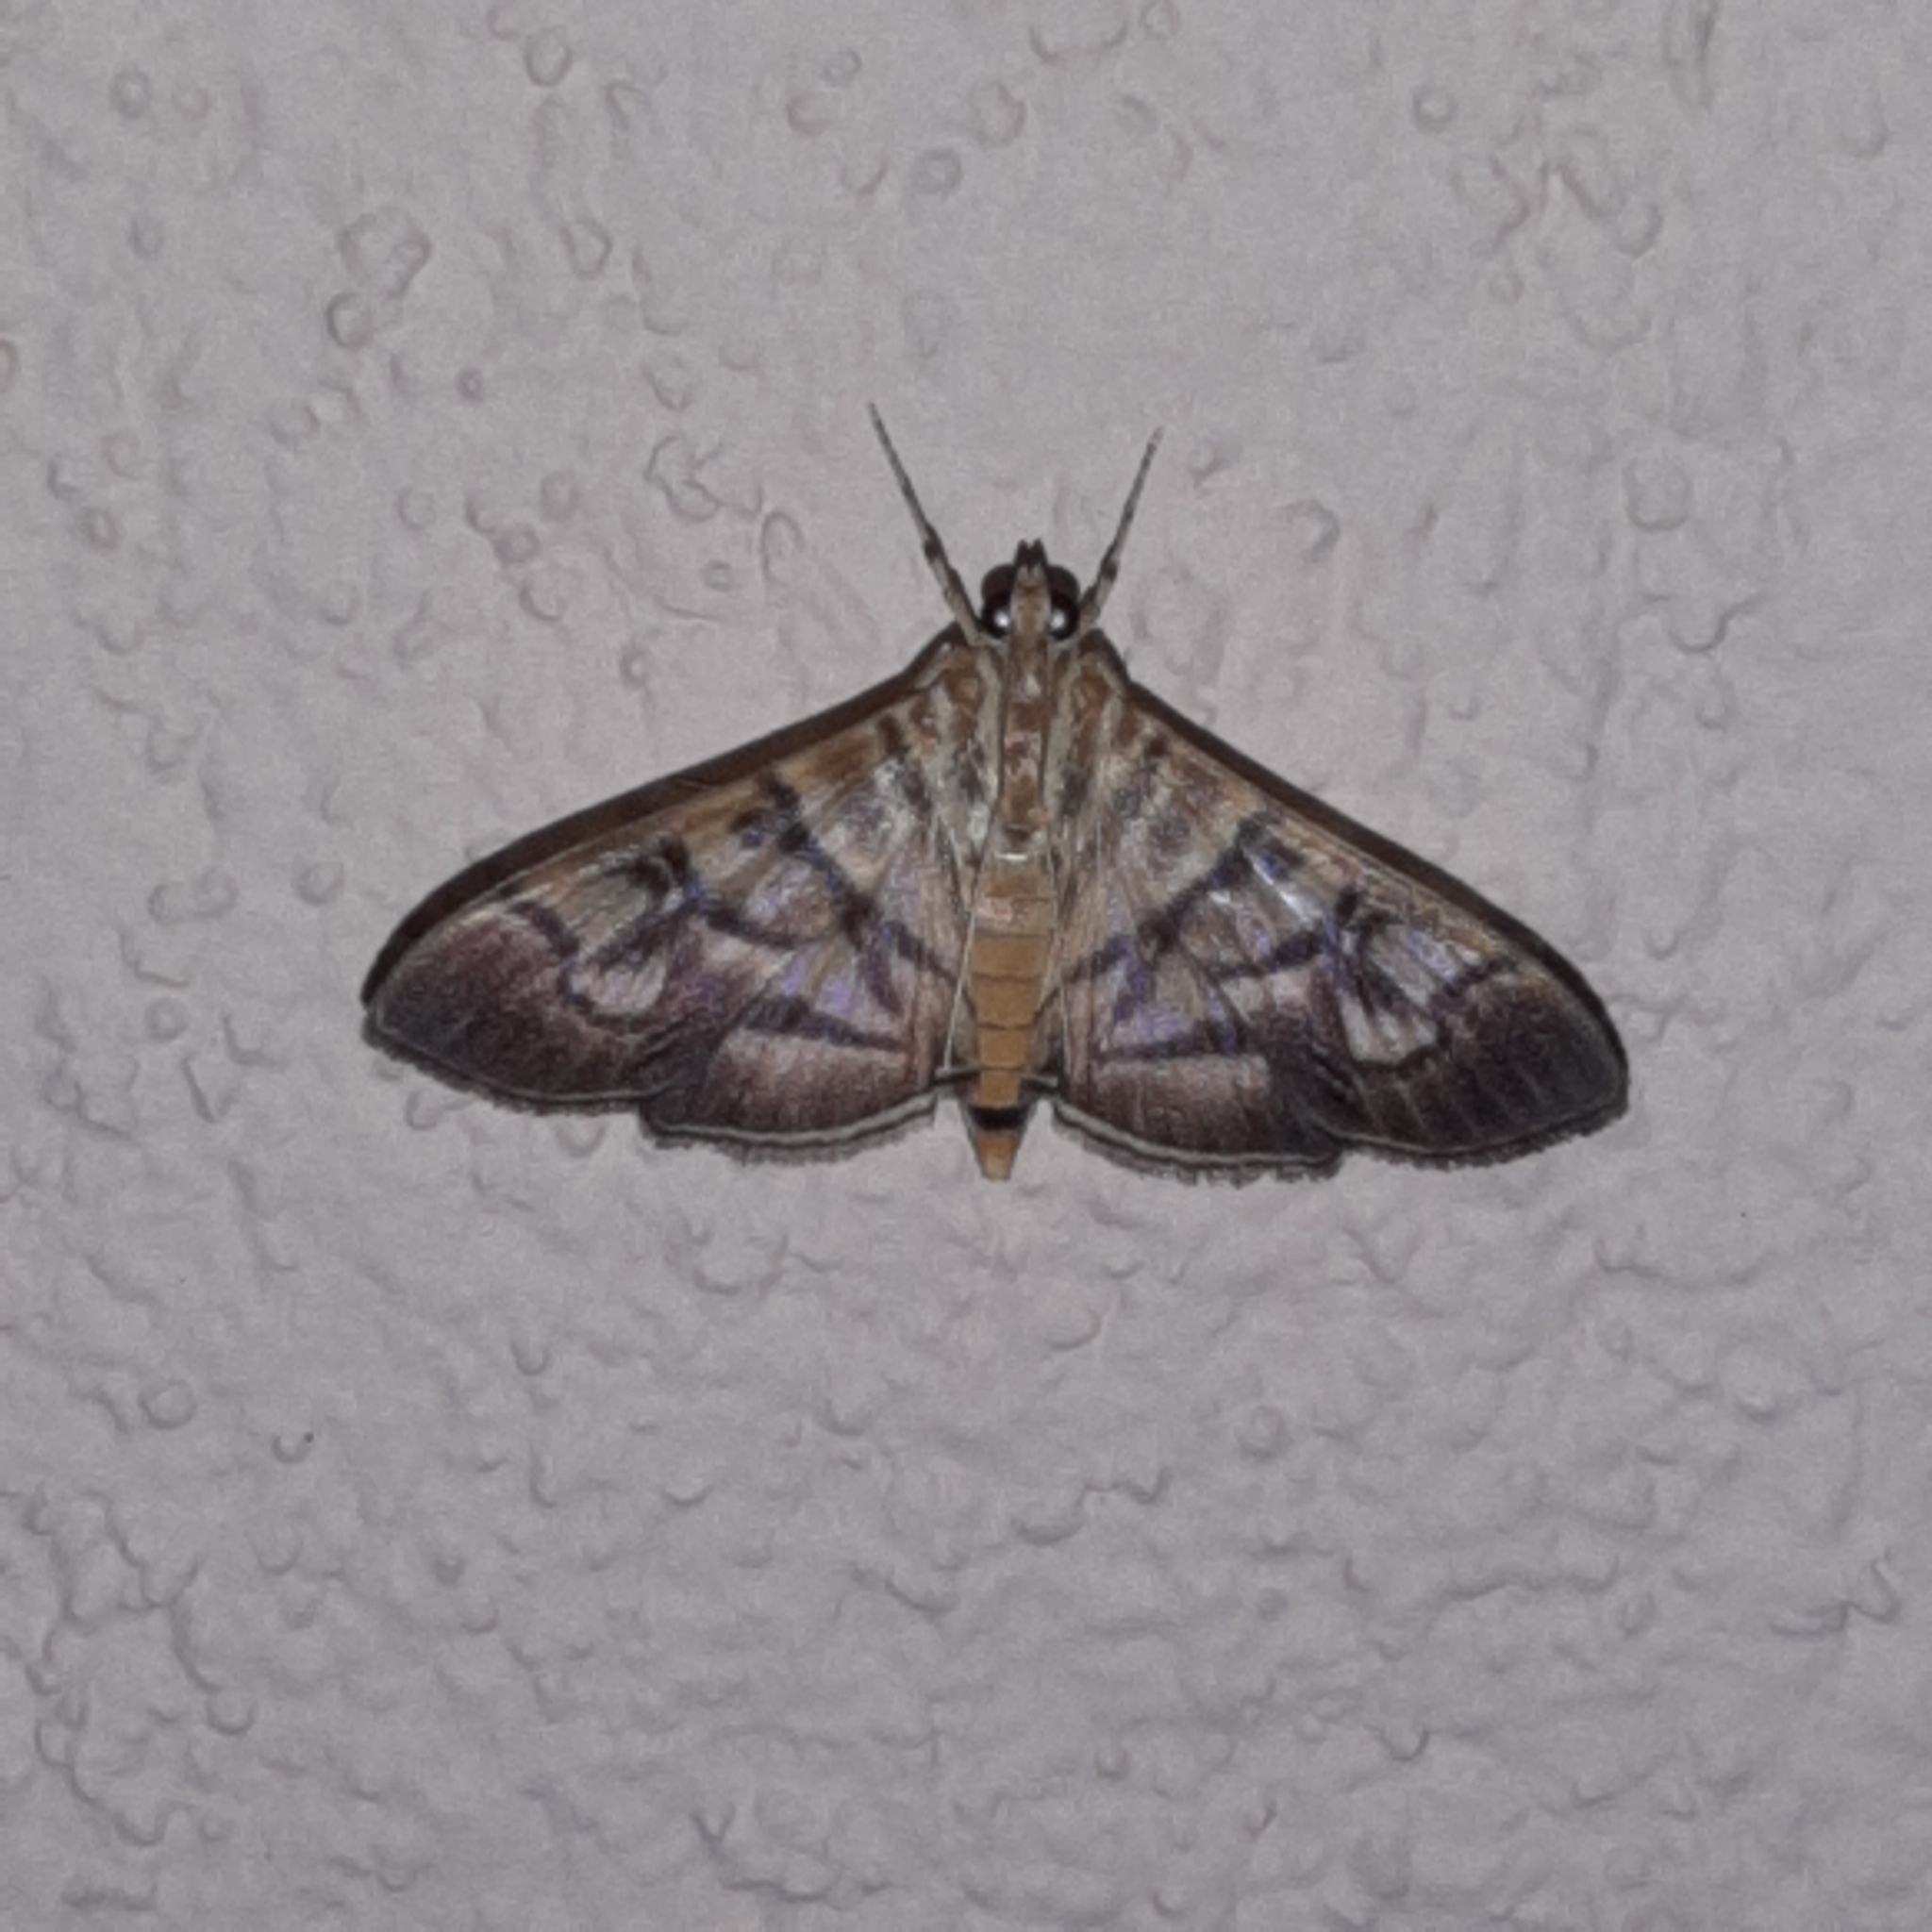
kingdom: Animalia
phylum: Arthropoda
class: Insecta
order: Lepidoptera
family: Crambidae
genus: Pilocrocis
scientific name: Pilocrocis lauralis
